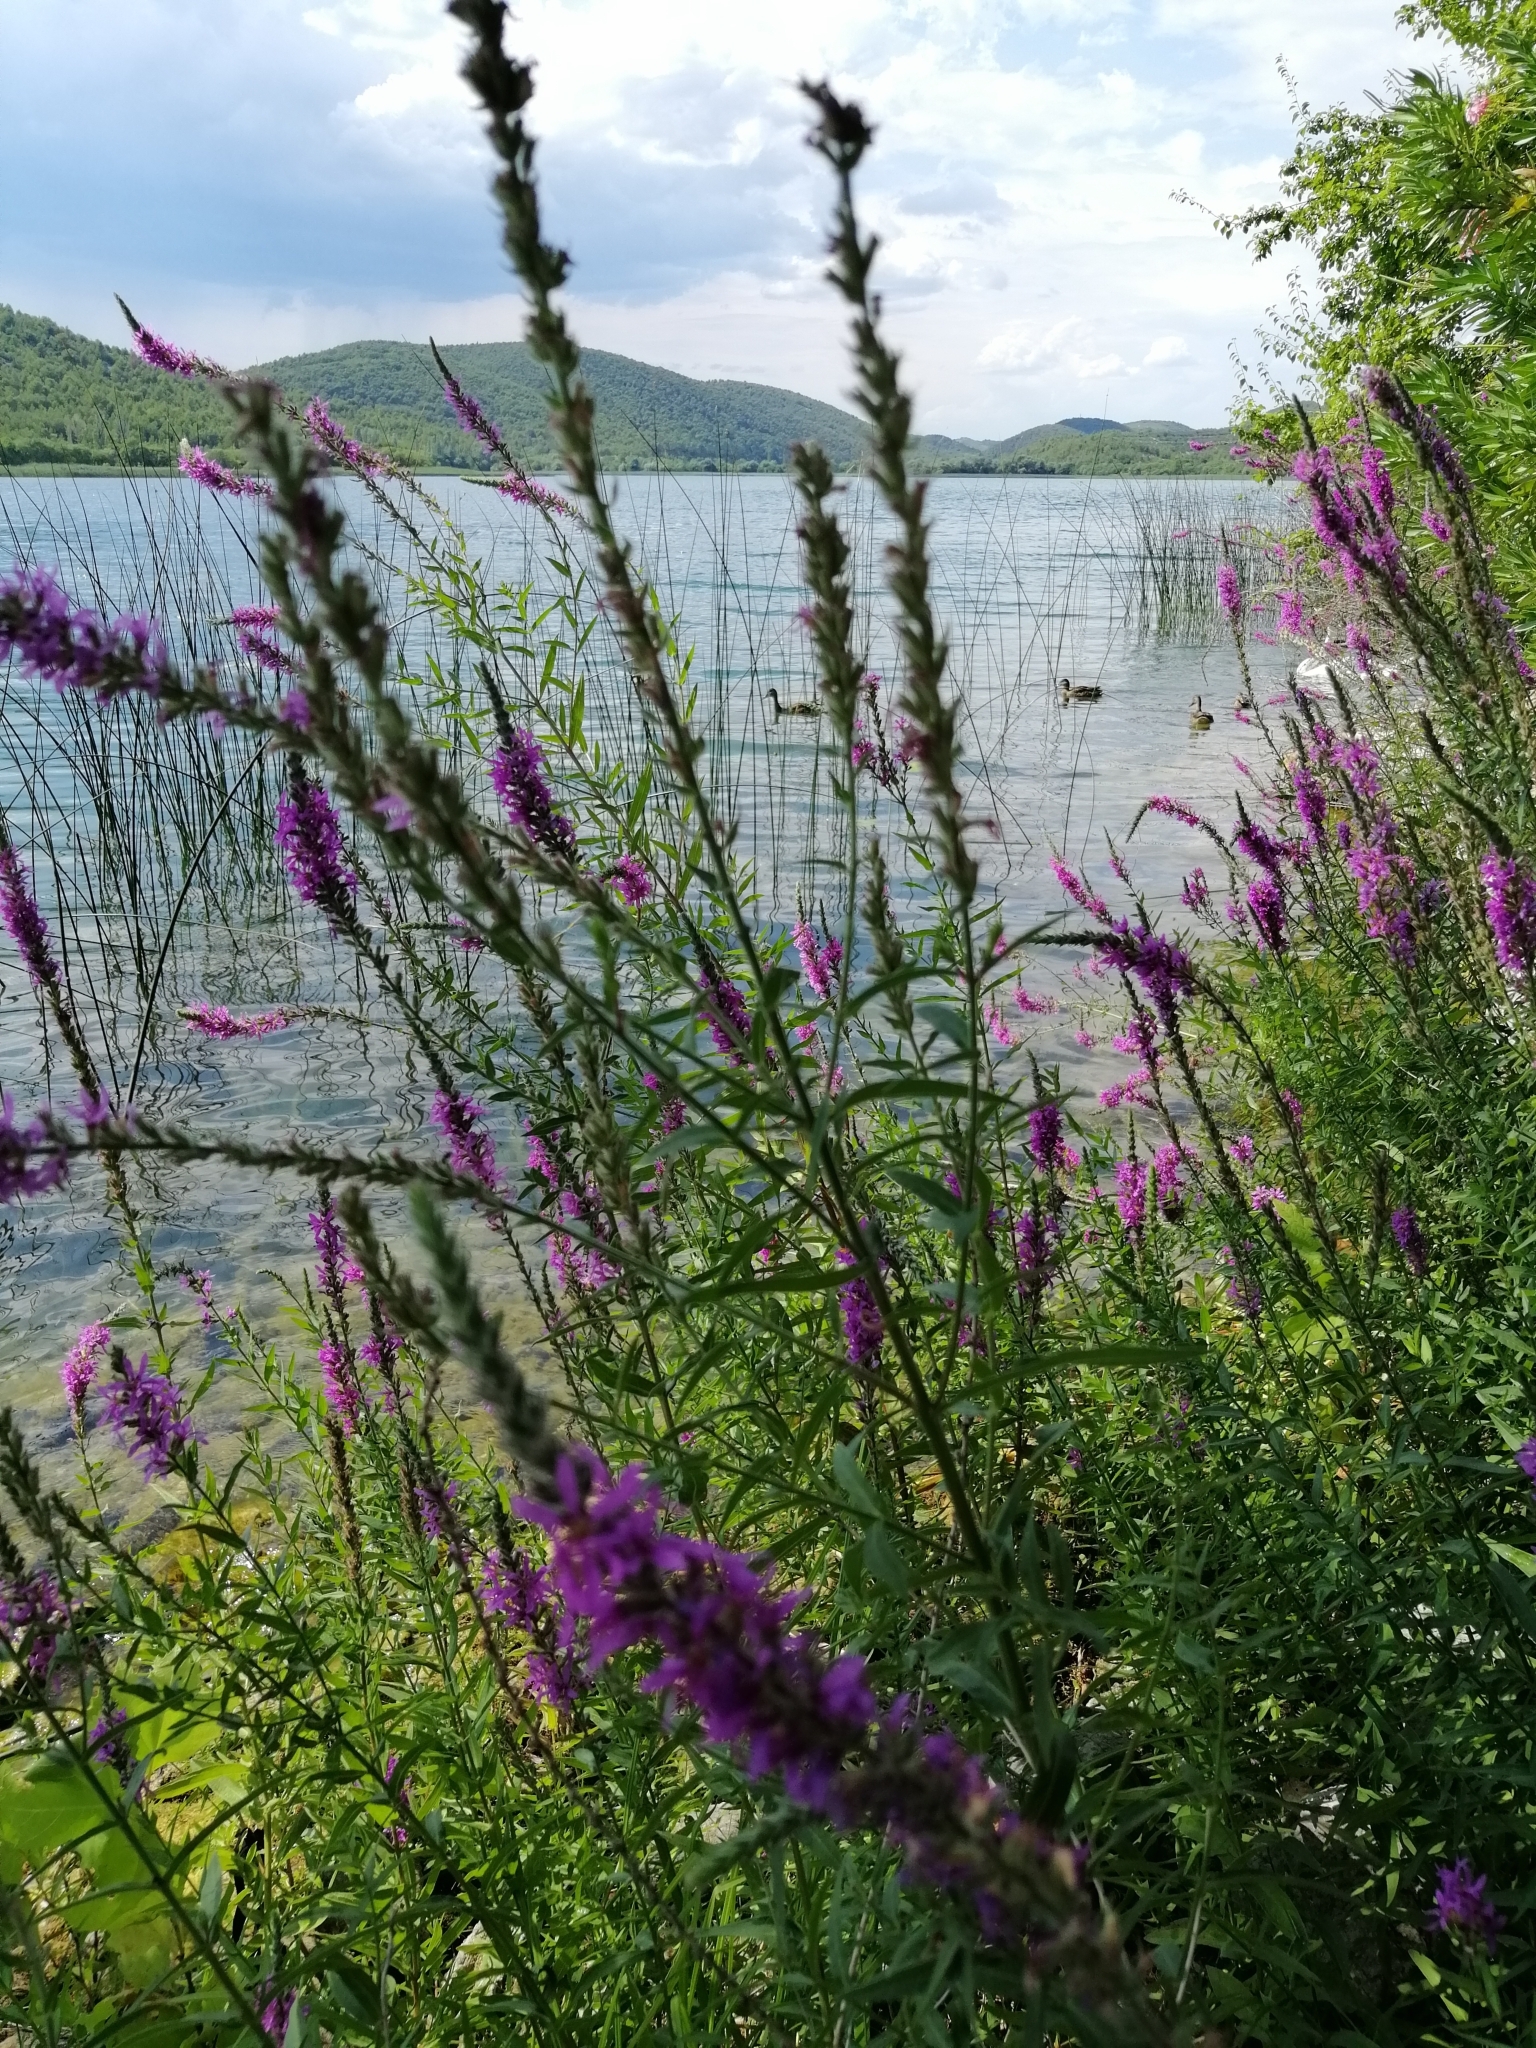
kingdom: Plantae
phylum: Tracheophyta
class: Magnoliopsida
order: Myrtales
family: Lythraceae
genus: Lythrum
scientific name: Lythrum salicaria
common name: Purple loosestrife
